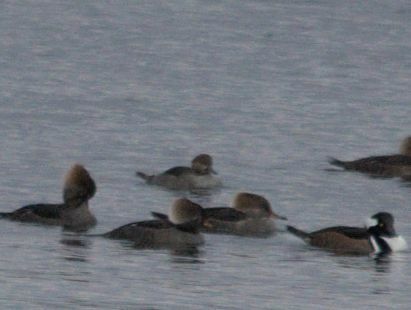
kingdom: Animalia
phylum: Chordata
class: Aves
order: Anseriformes
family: Anatidae
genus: Lophodytes
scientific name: Lophodytes cucullatus
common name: Hooded merganser
